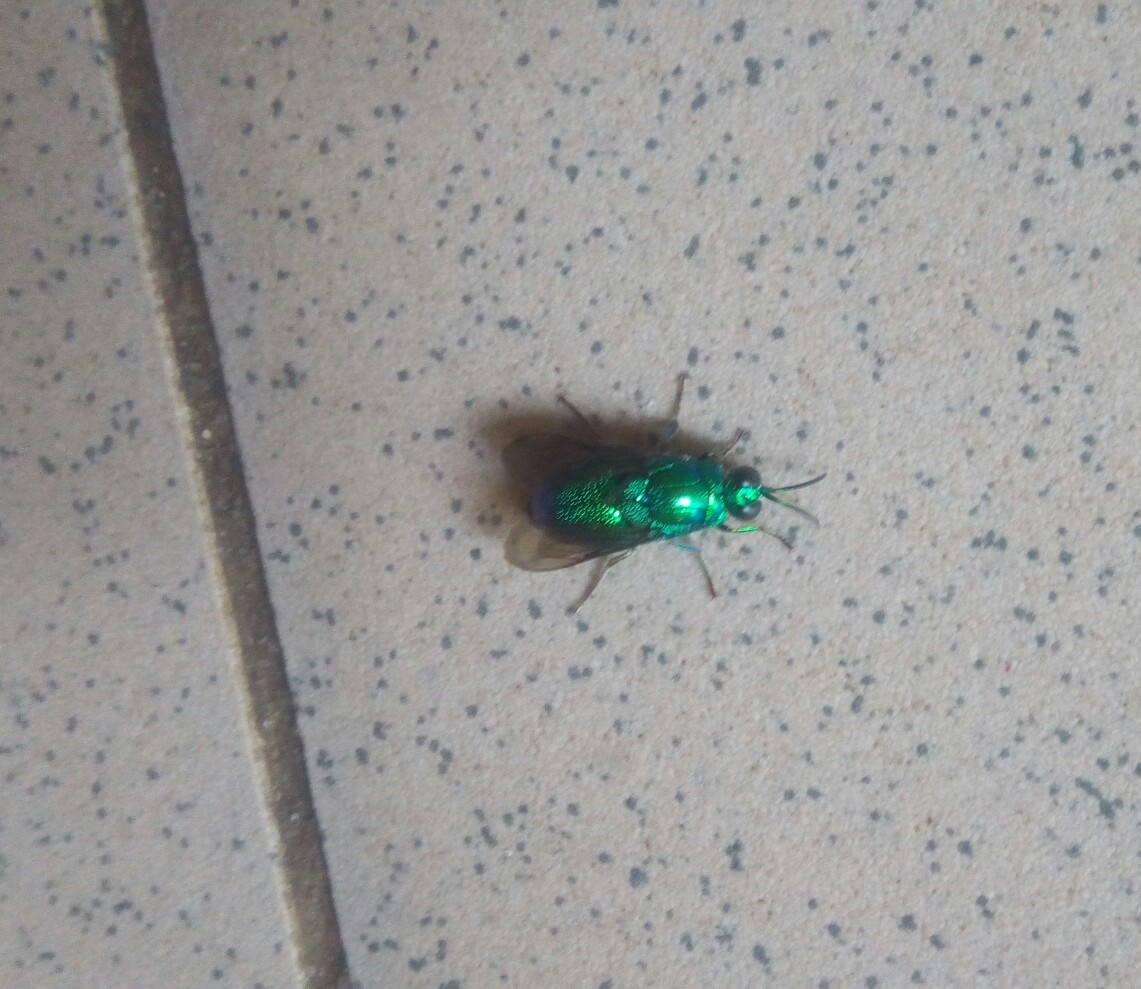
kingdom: Animalia
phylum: Arthropoda
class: Insecta
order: Hymenoptera
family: Chrysididae
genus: Stilbum
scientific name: Stilbum cyanurum
